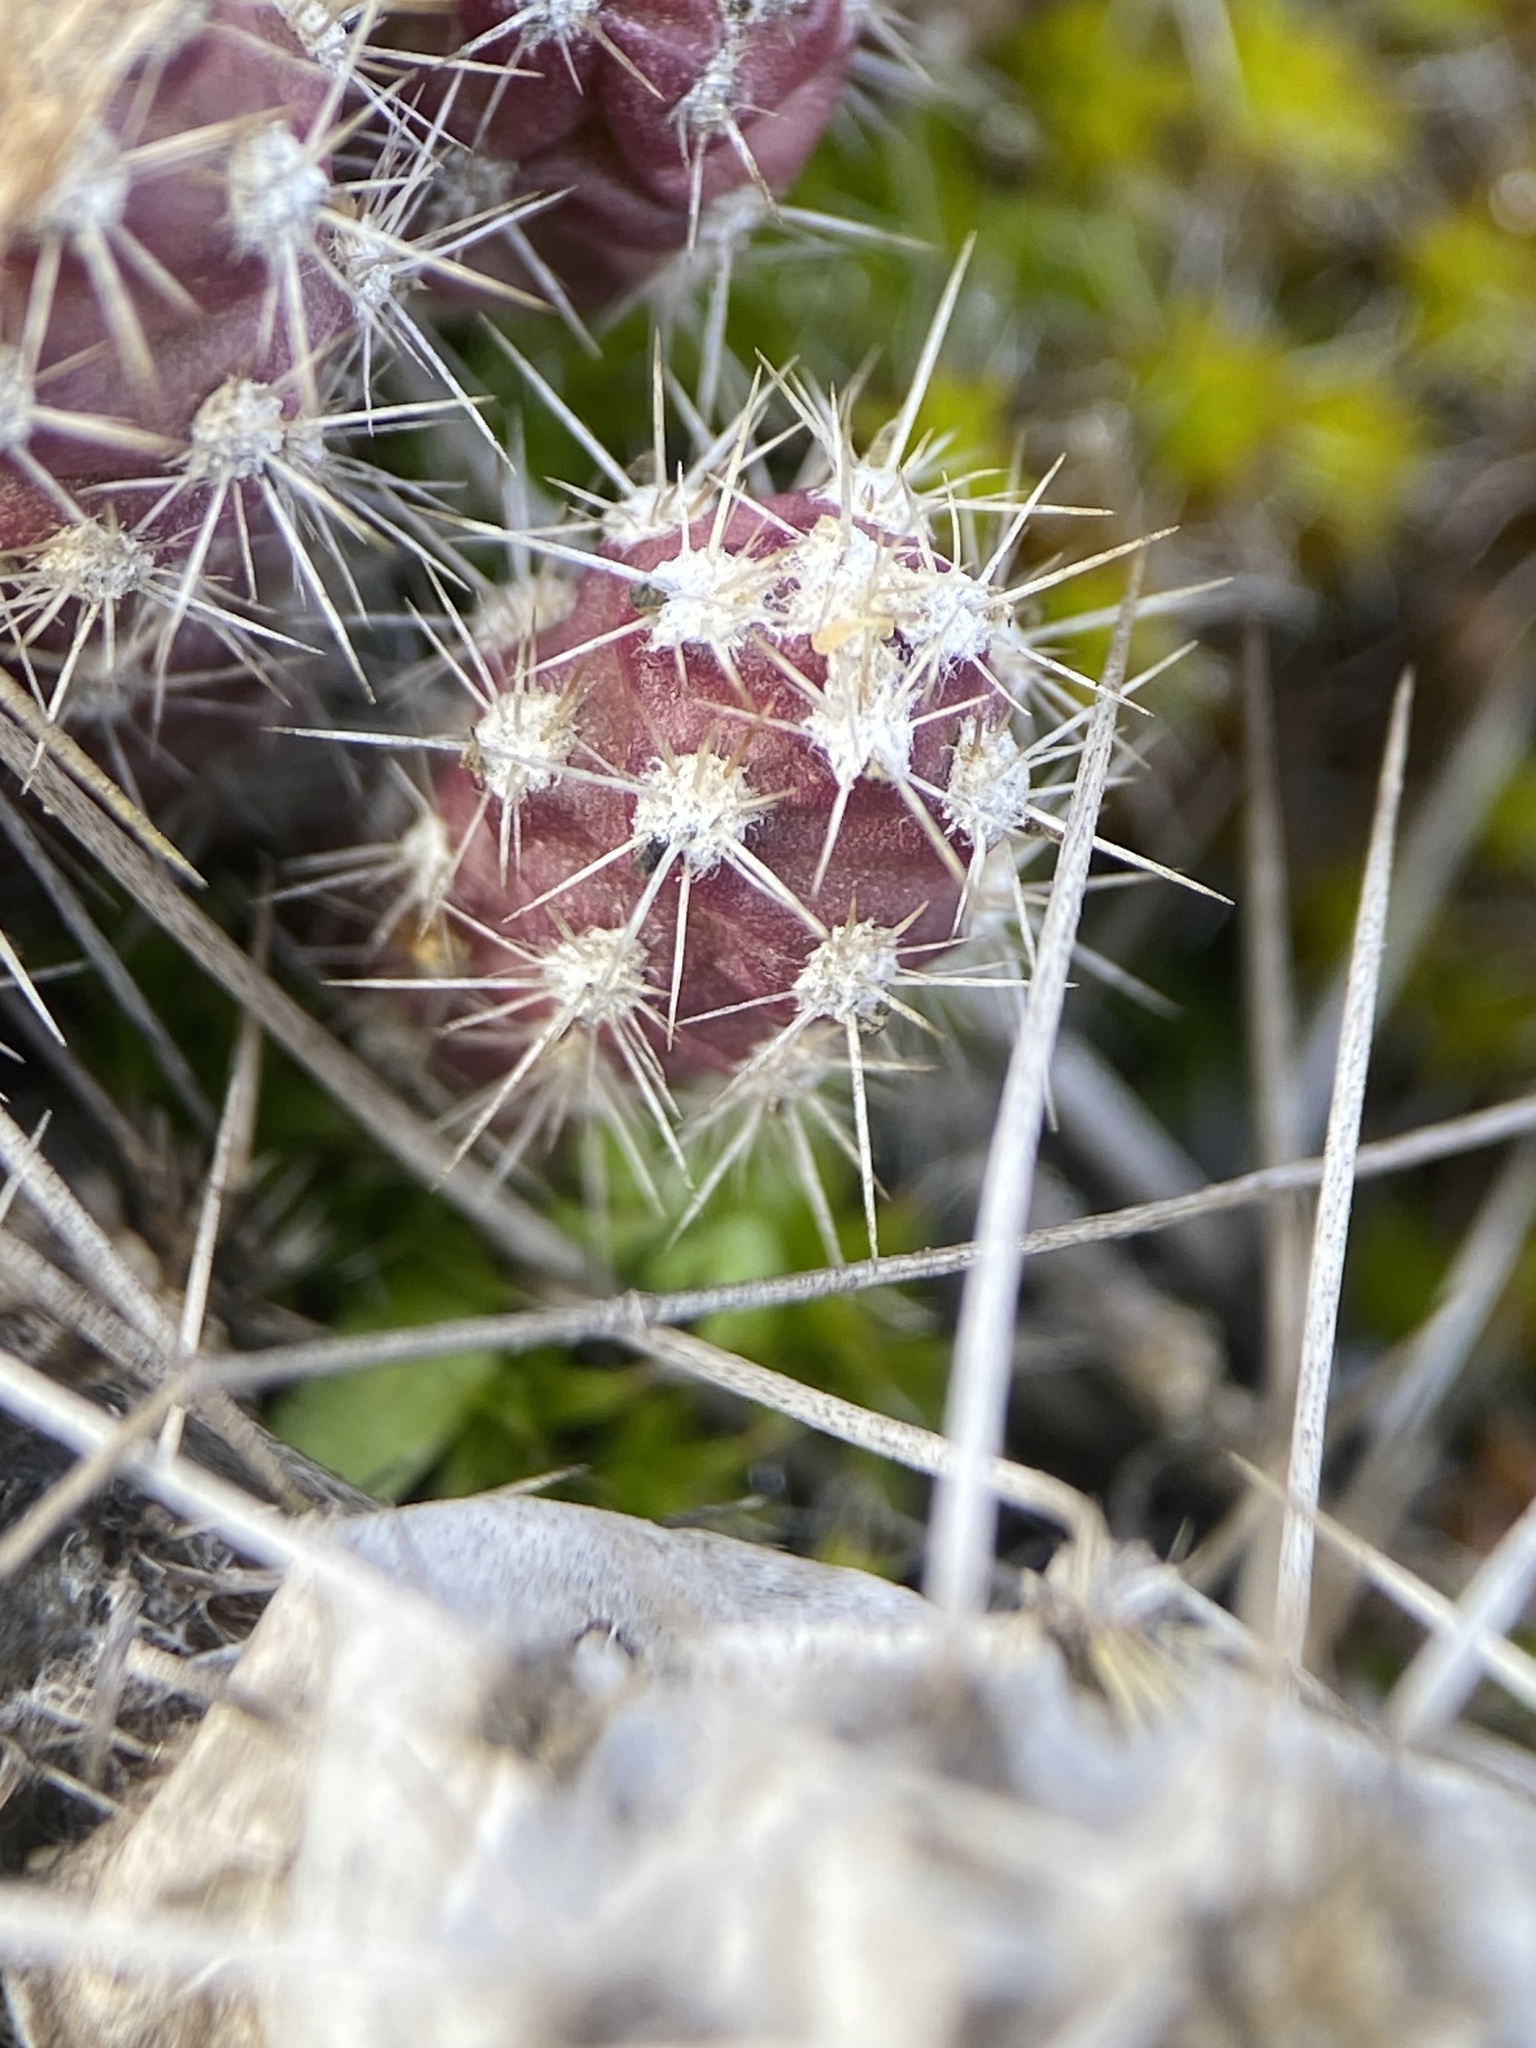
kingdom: Plantae
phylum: Tracheophyta
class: Magnoliopsida
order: Caryophyllales
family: Cactaceae
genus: Opuntia
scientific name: Opuntia fragilis
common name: Brittle cactus
